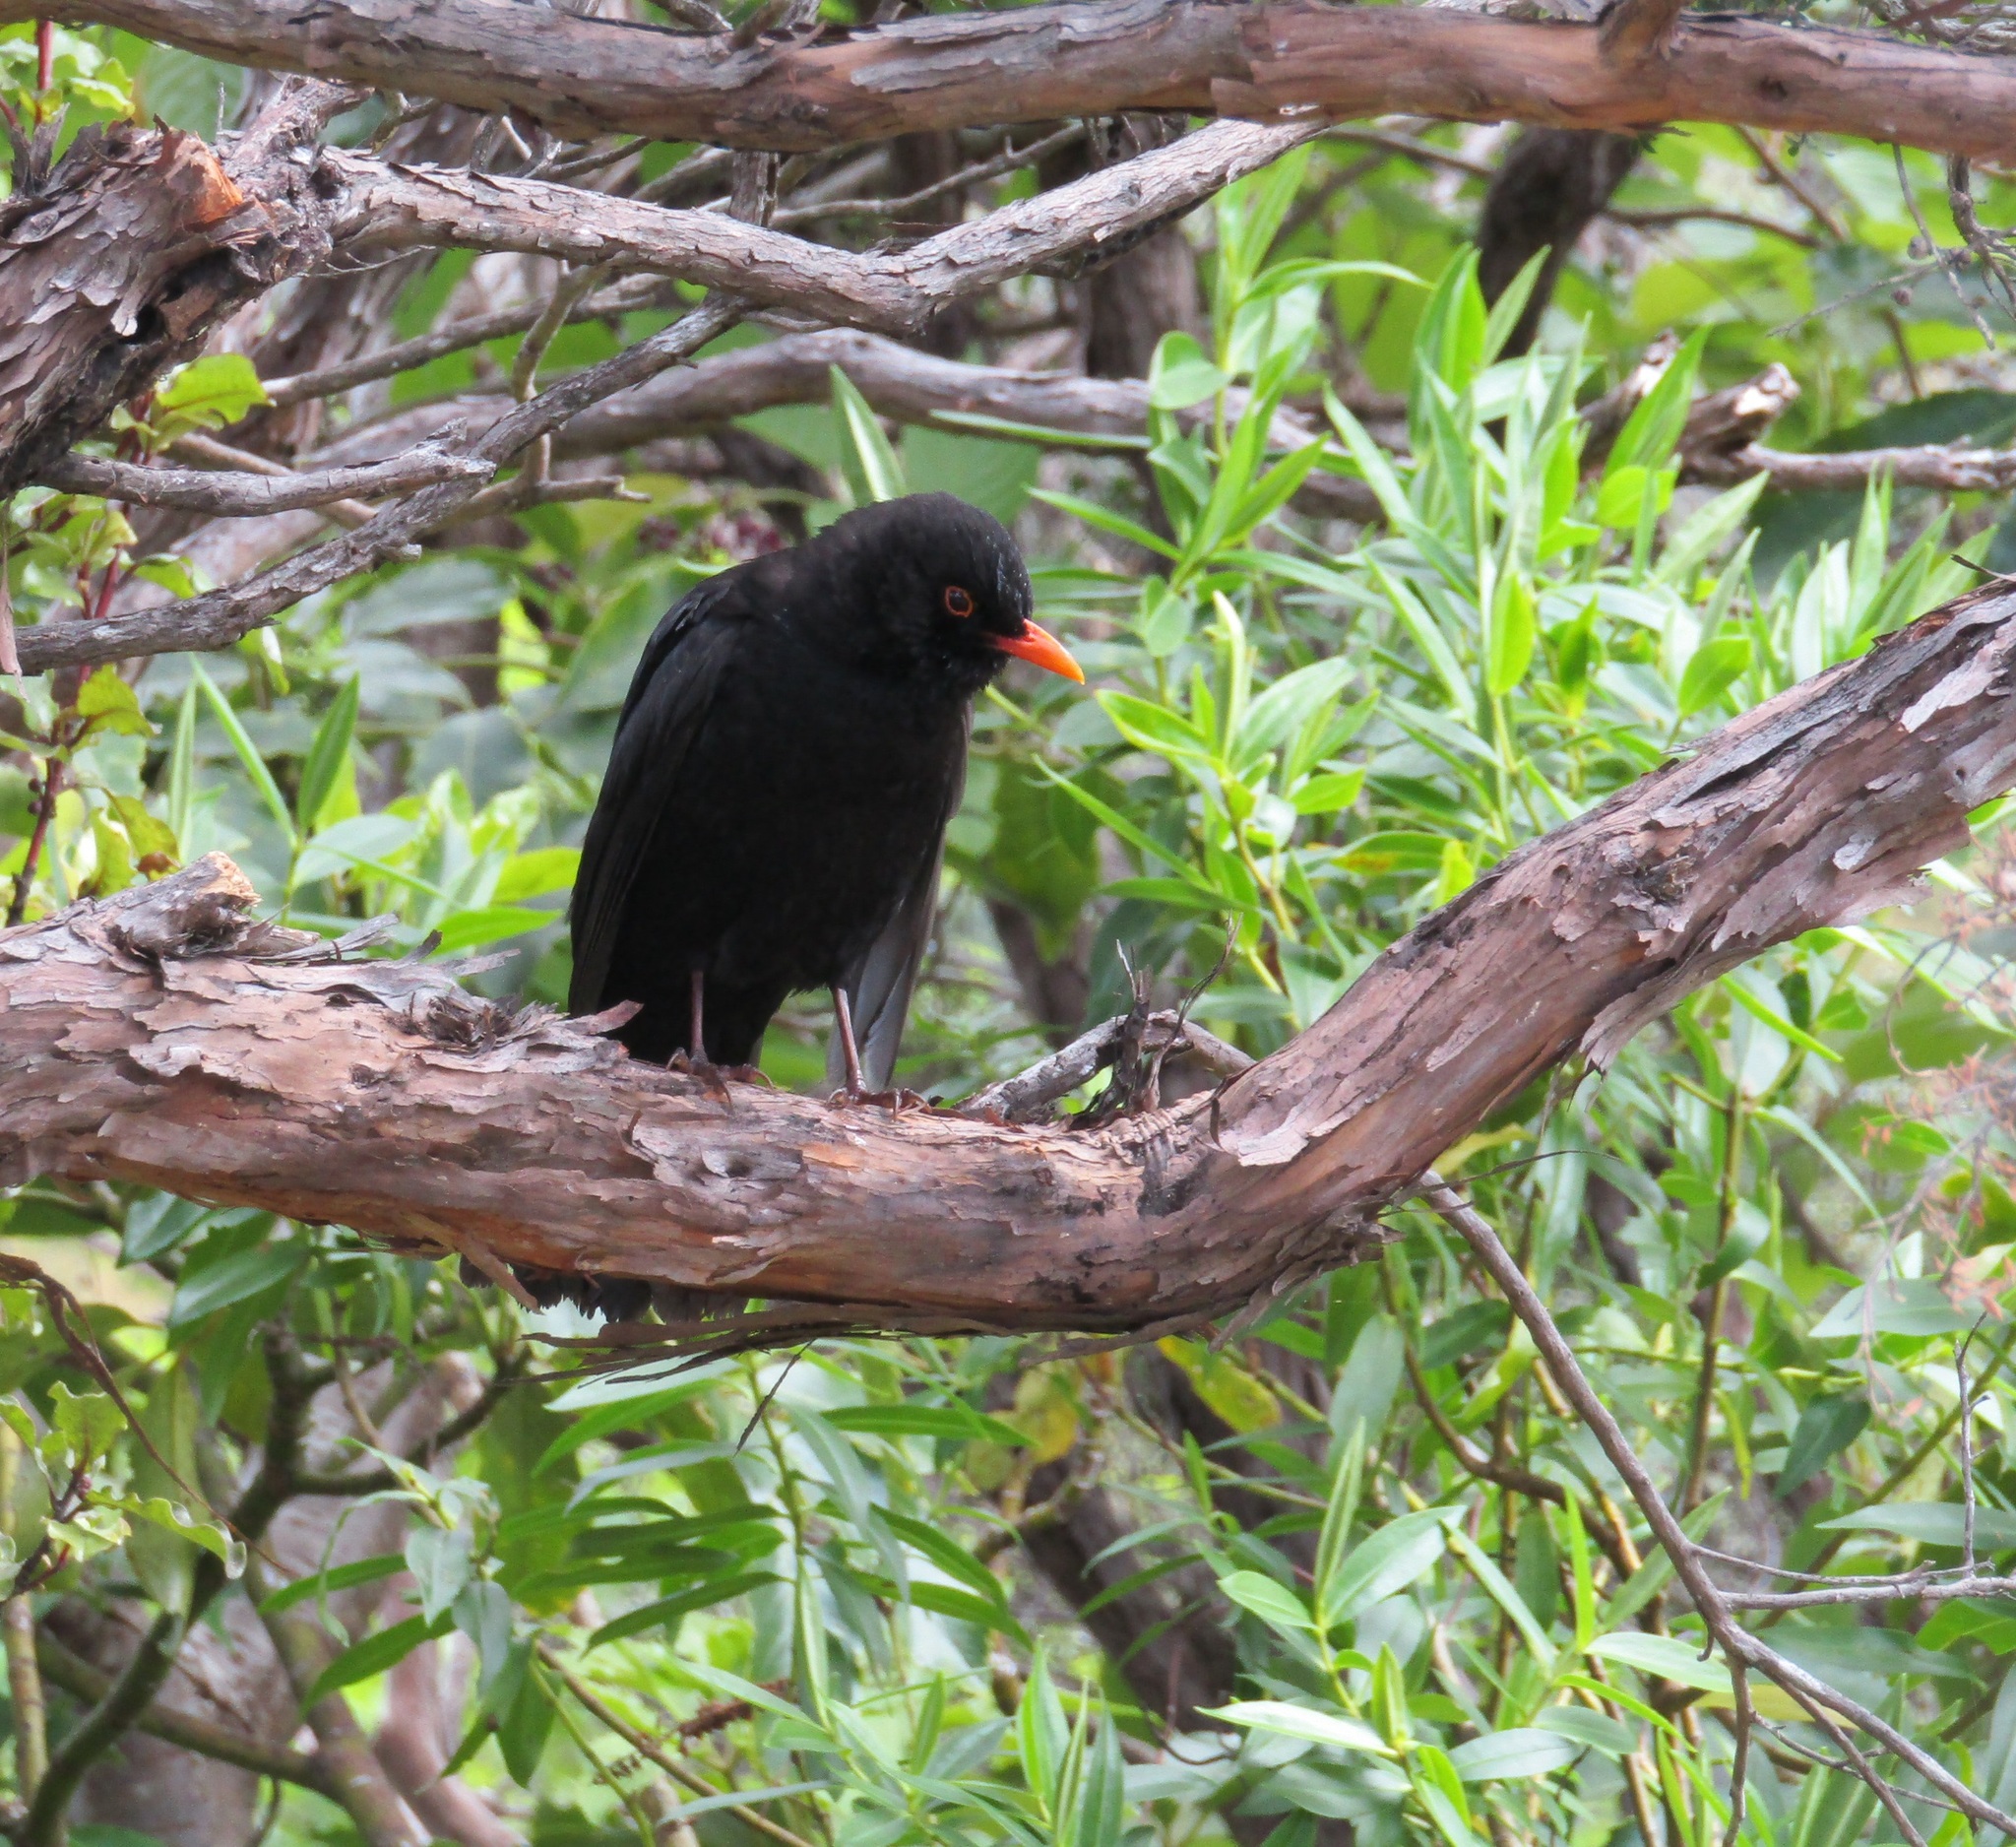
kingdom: Animalia
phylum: Chordata
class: Aves
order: Passeriformes
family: Turdidae
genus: Turdus
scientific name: Turdus merula
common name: Common blackbird
